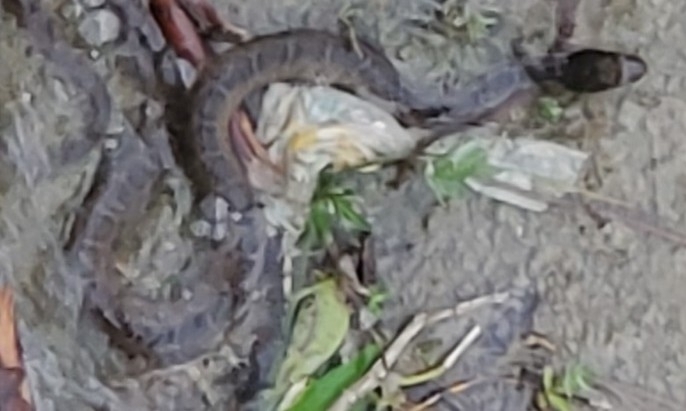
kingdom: Animalia
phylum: Chordata
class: Squamata
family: Colubridae
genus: Nerodia
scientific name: Nerodia erythrogaster
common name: Plainbelly water snake
